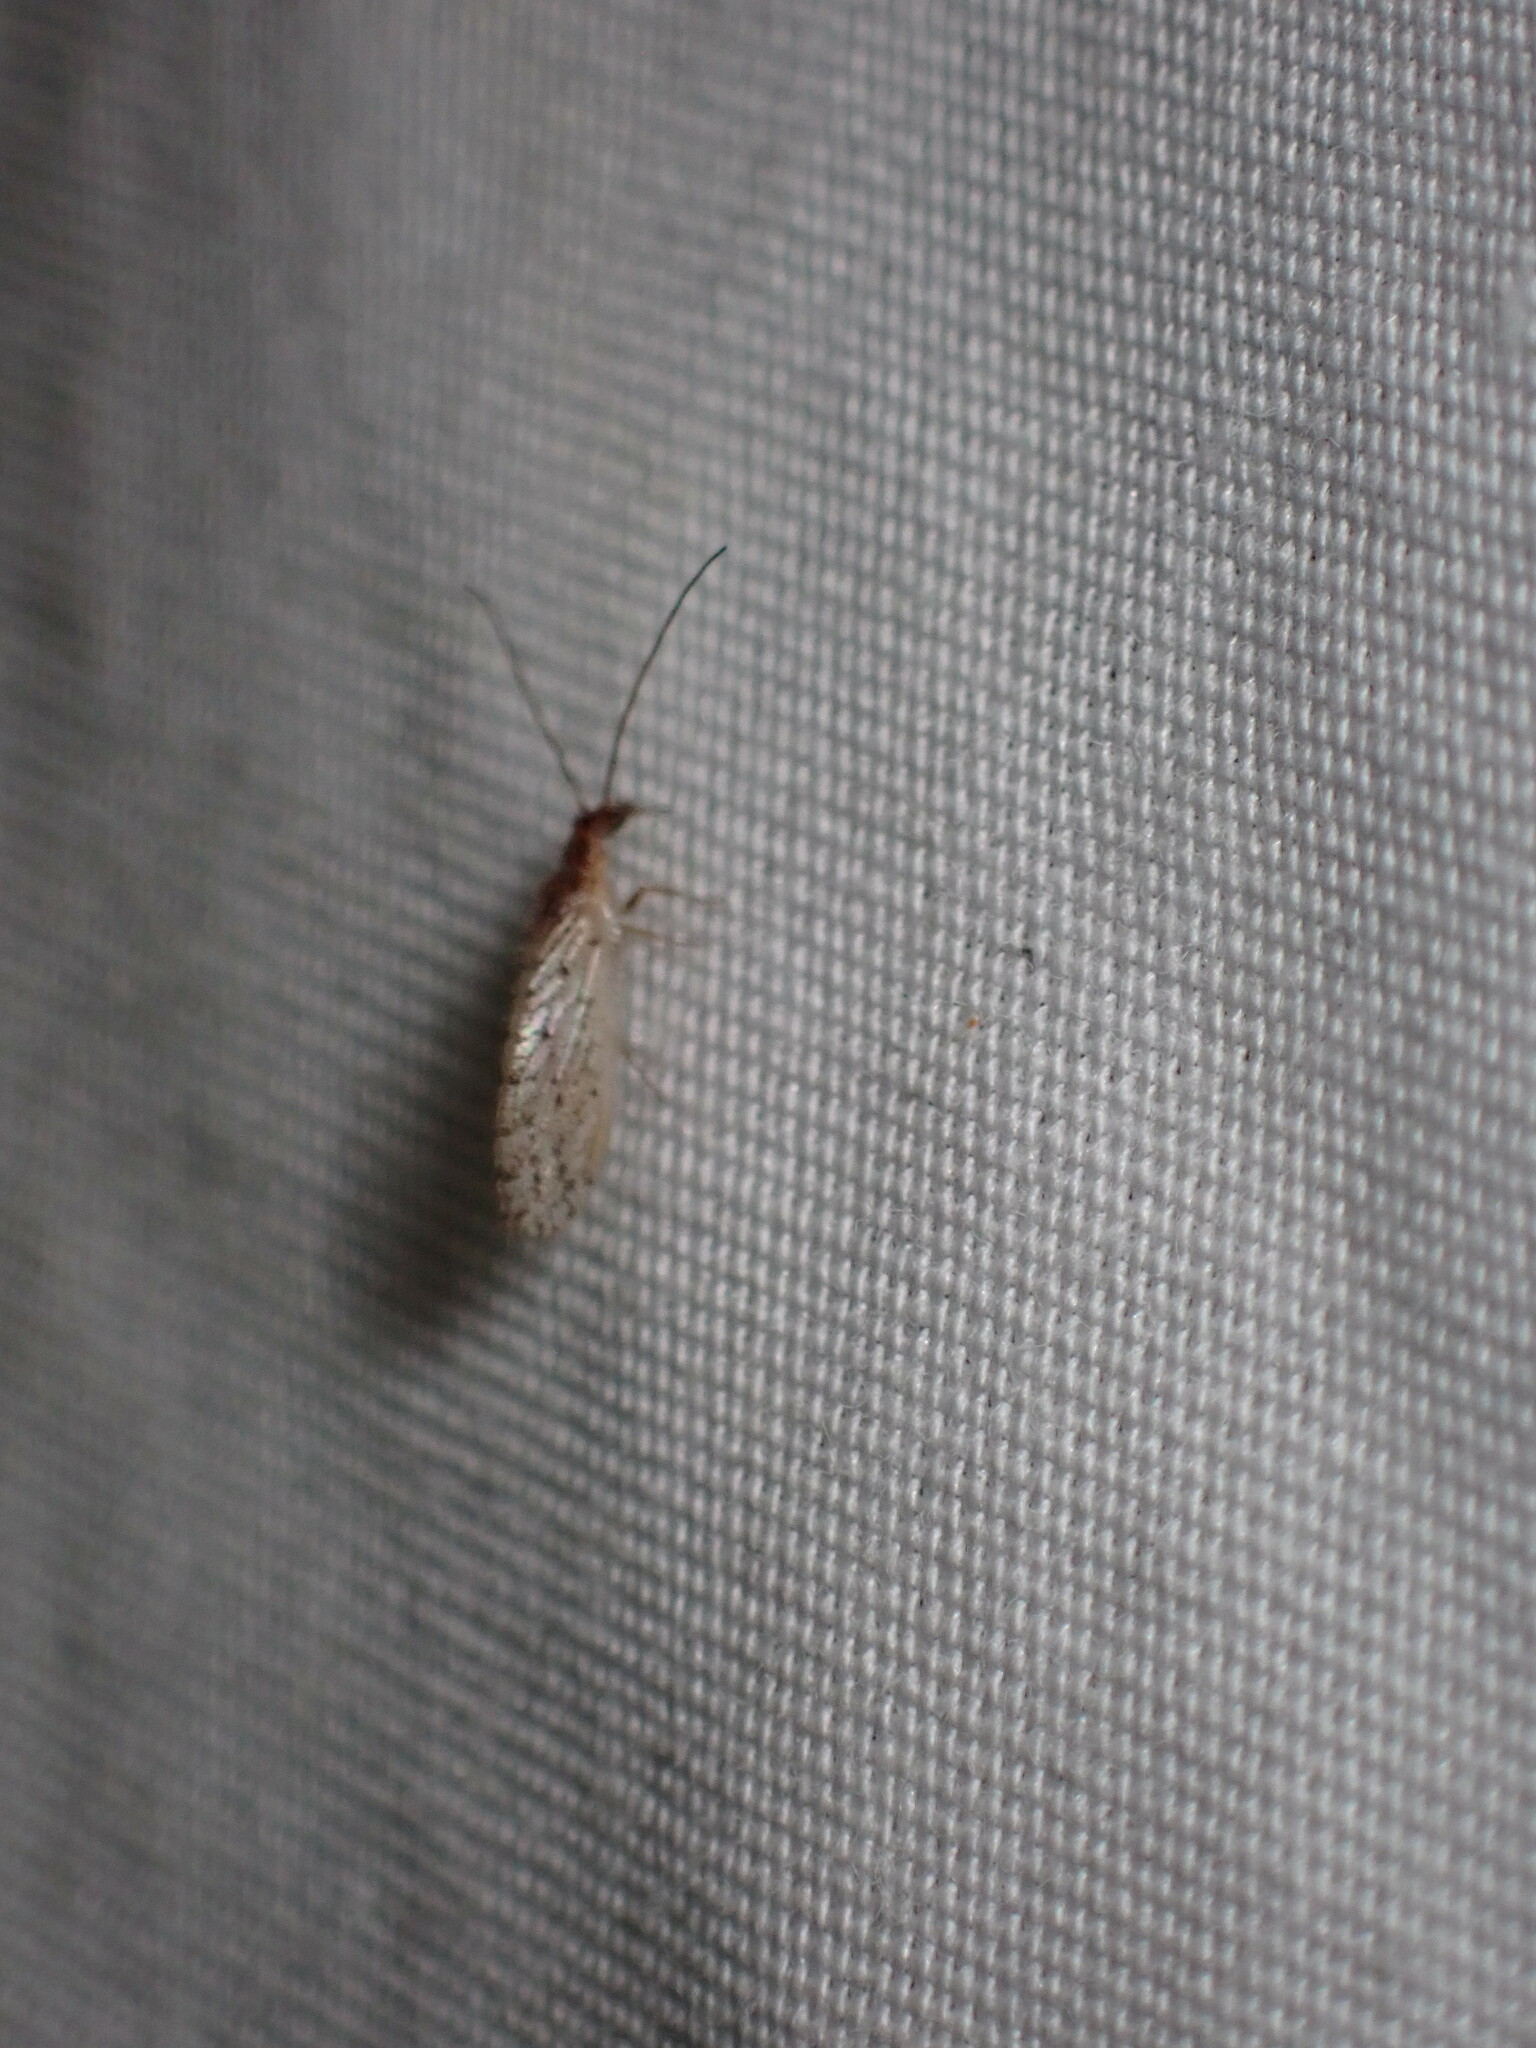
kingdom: Animalia
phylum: Arthropoda
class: Insecta
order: Neuroptera
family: Hemerobiidae
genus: Micromus
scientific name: Micromus variolosus
